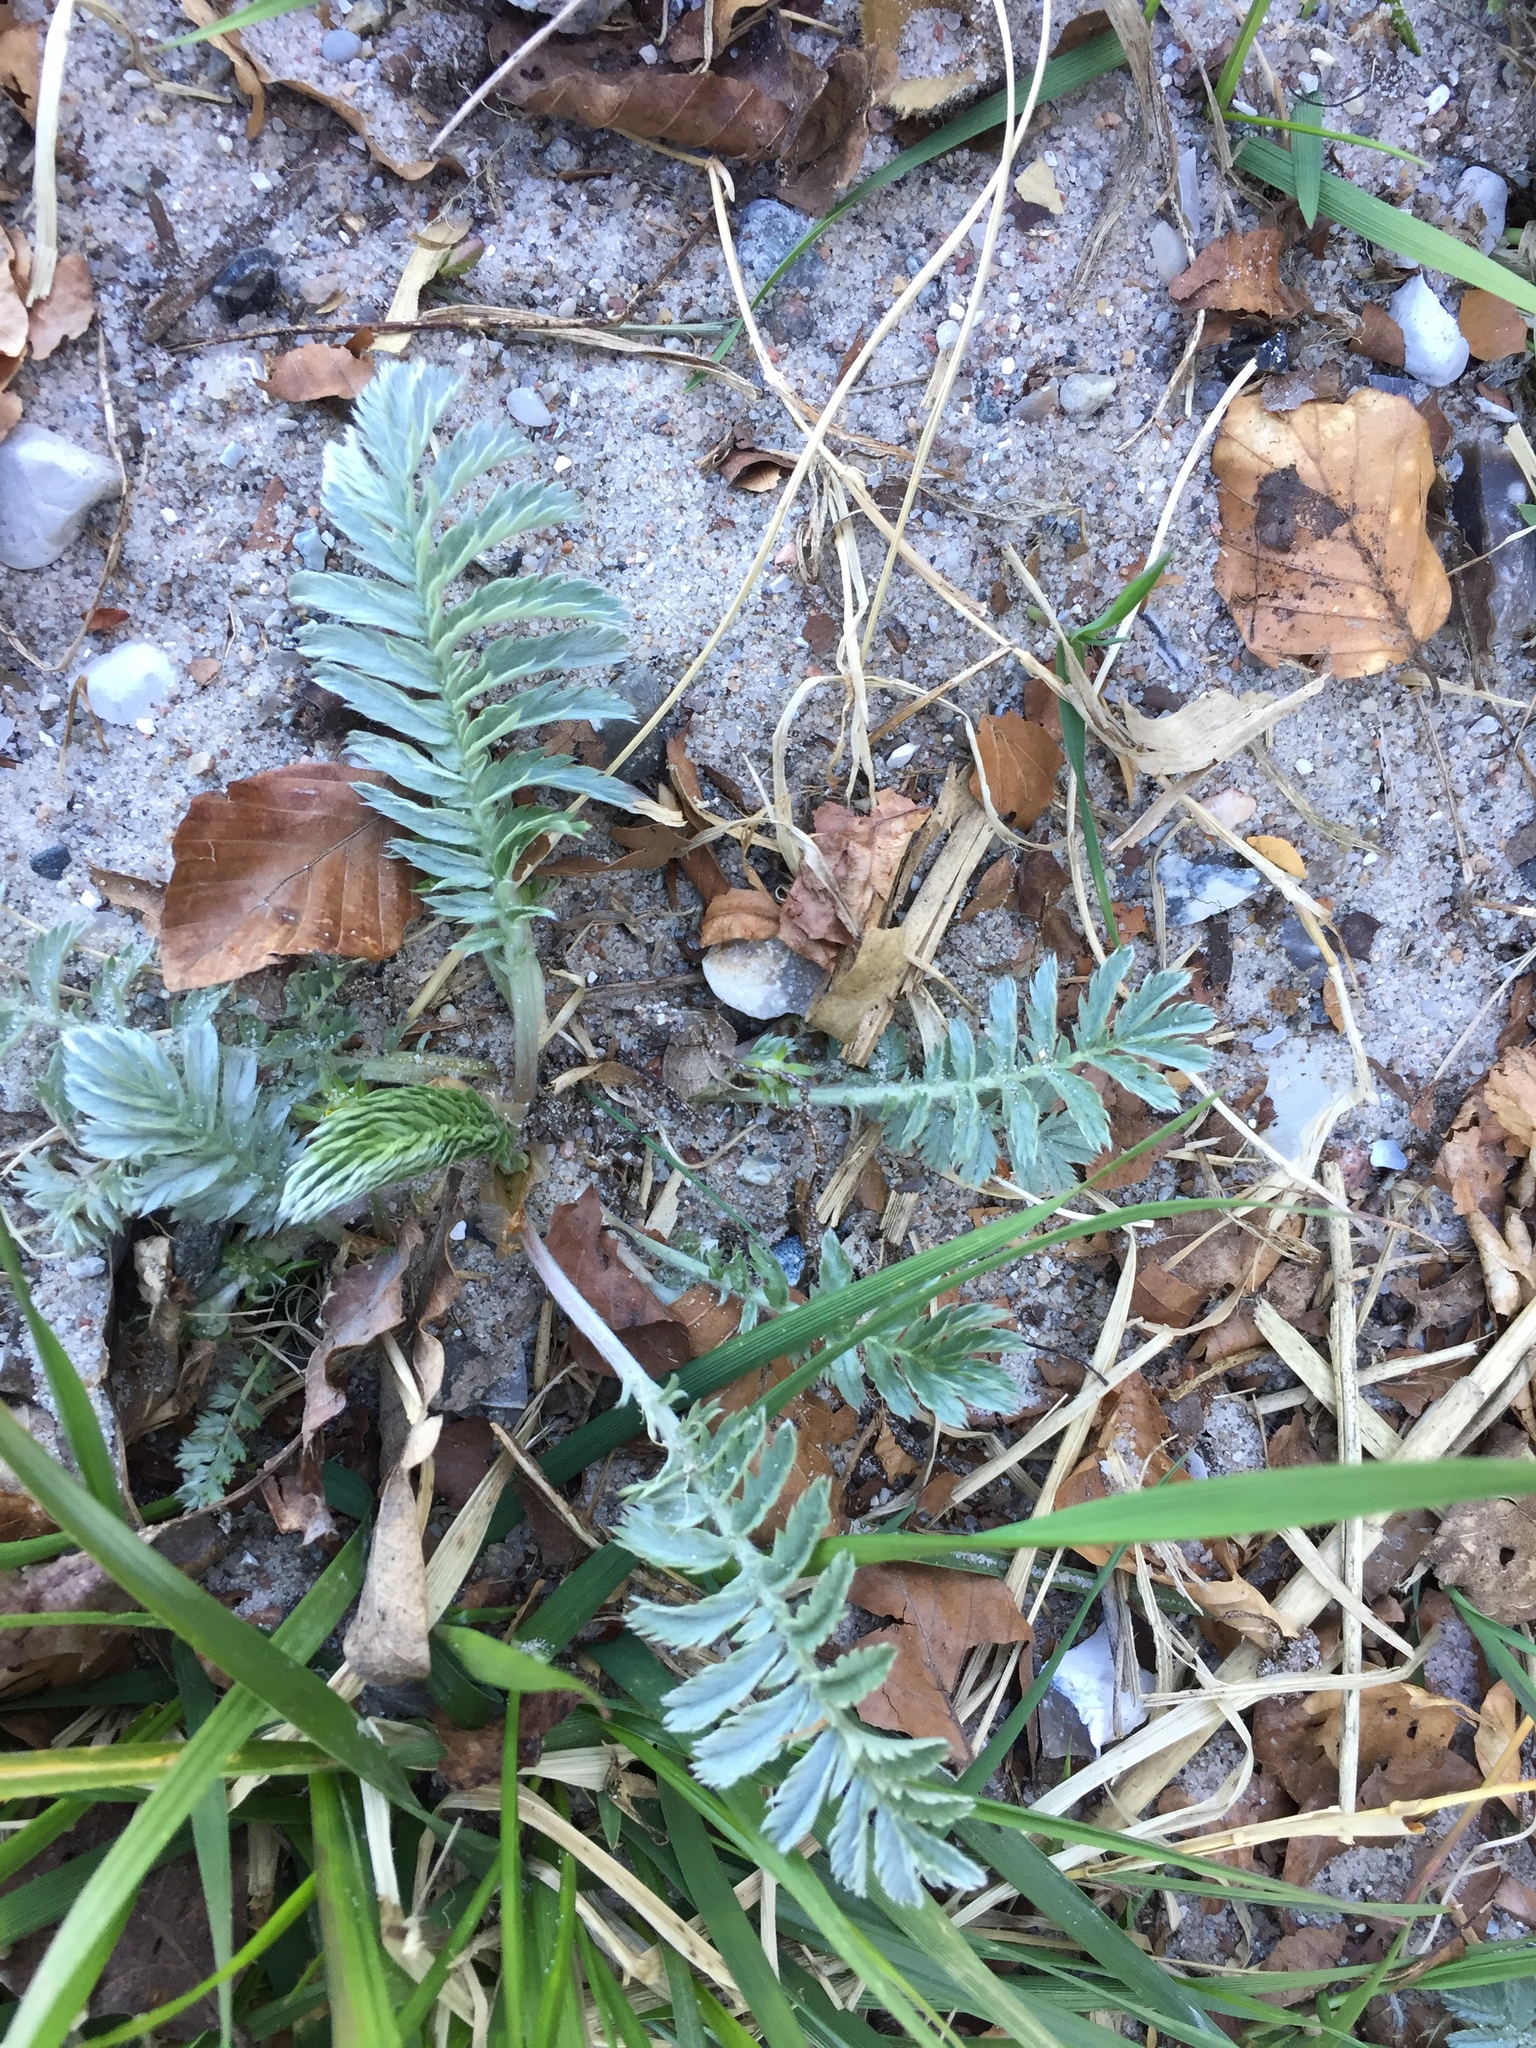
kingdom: Plantae
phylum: Tracheophyta
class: Magnoliopsida
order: Rosales
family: Rosaceae
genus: Argentina
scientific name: Argentina anserina
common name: Common silverweed
